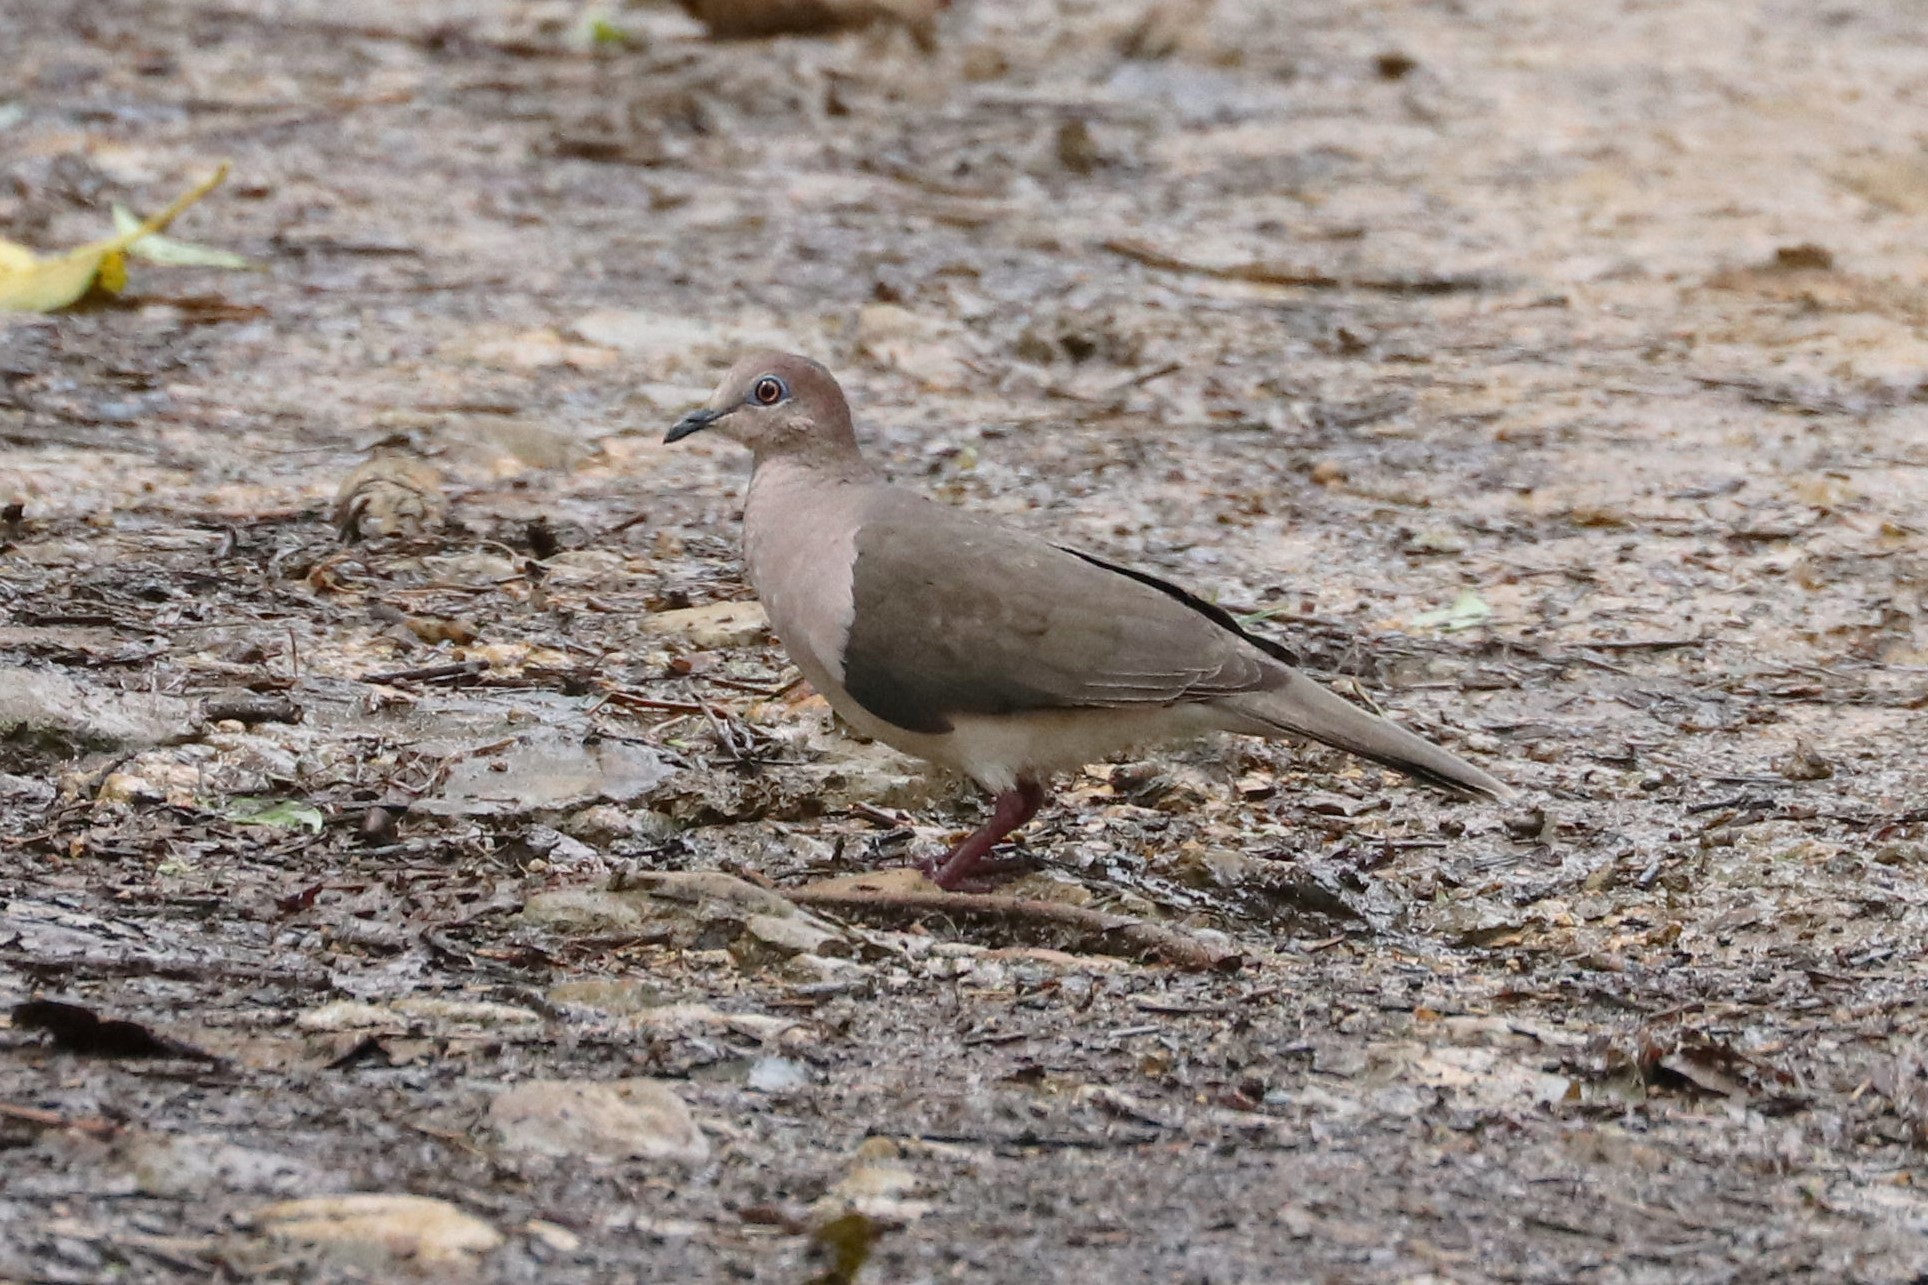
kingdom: Animalia
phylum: Chordata
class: Aves
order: Columbiformes
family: Columbidae
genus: Leptotila
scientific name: Leptotila verreauxi
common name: White-tipped dove
